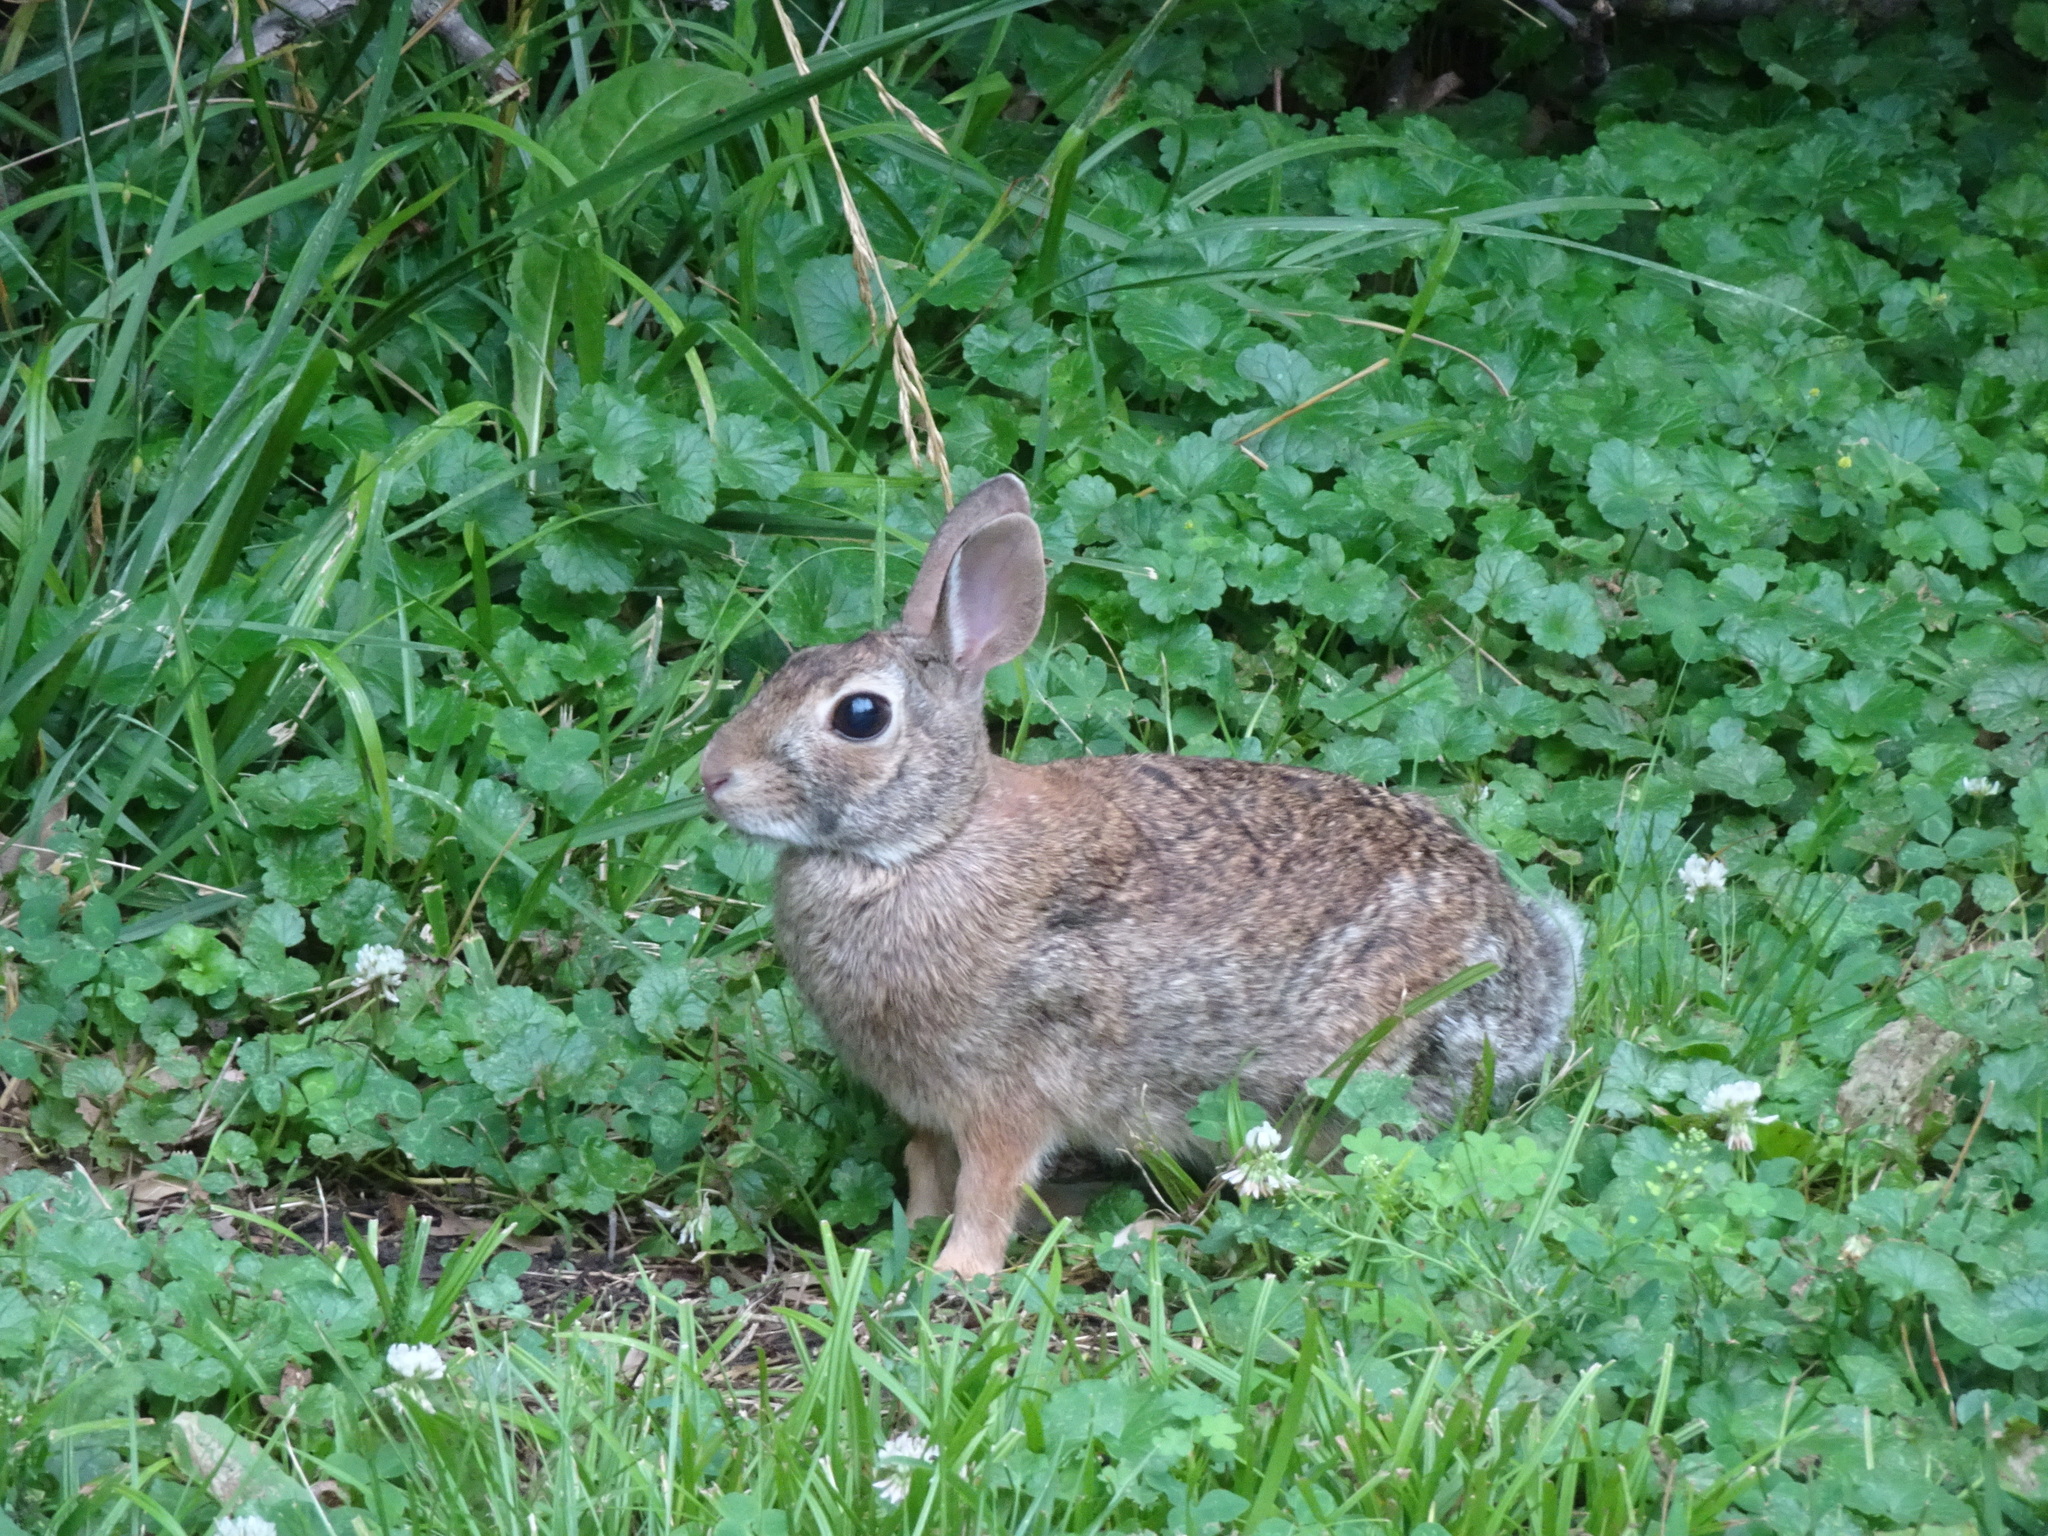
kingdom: Animalia
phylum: Chordata
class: Mammalia
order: Lagomorpha
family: Leporidae
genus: Sylvilagus
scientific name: Sylvilagus floridanus
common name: Eastern cottontail
